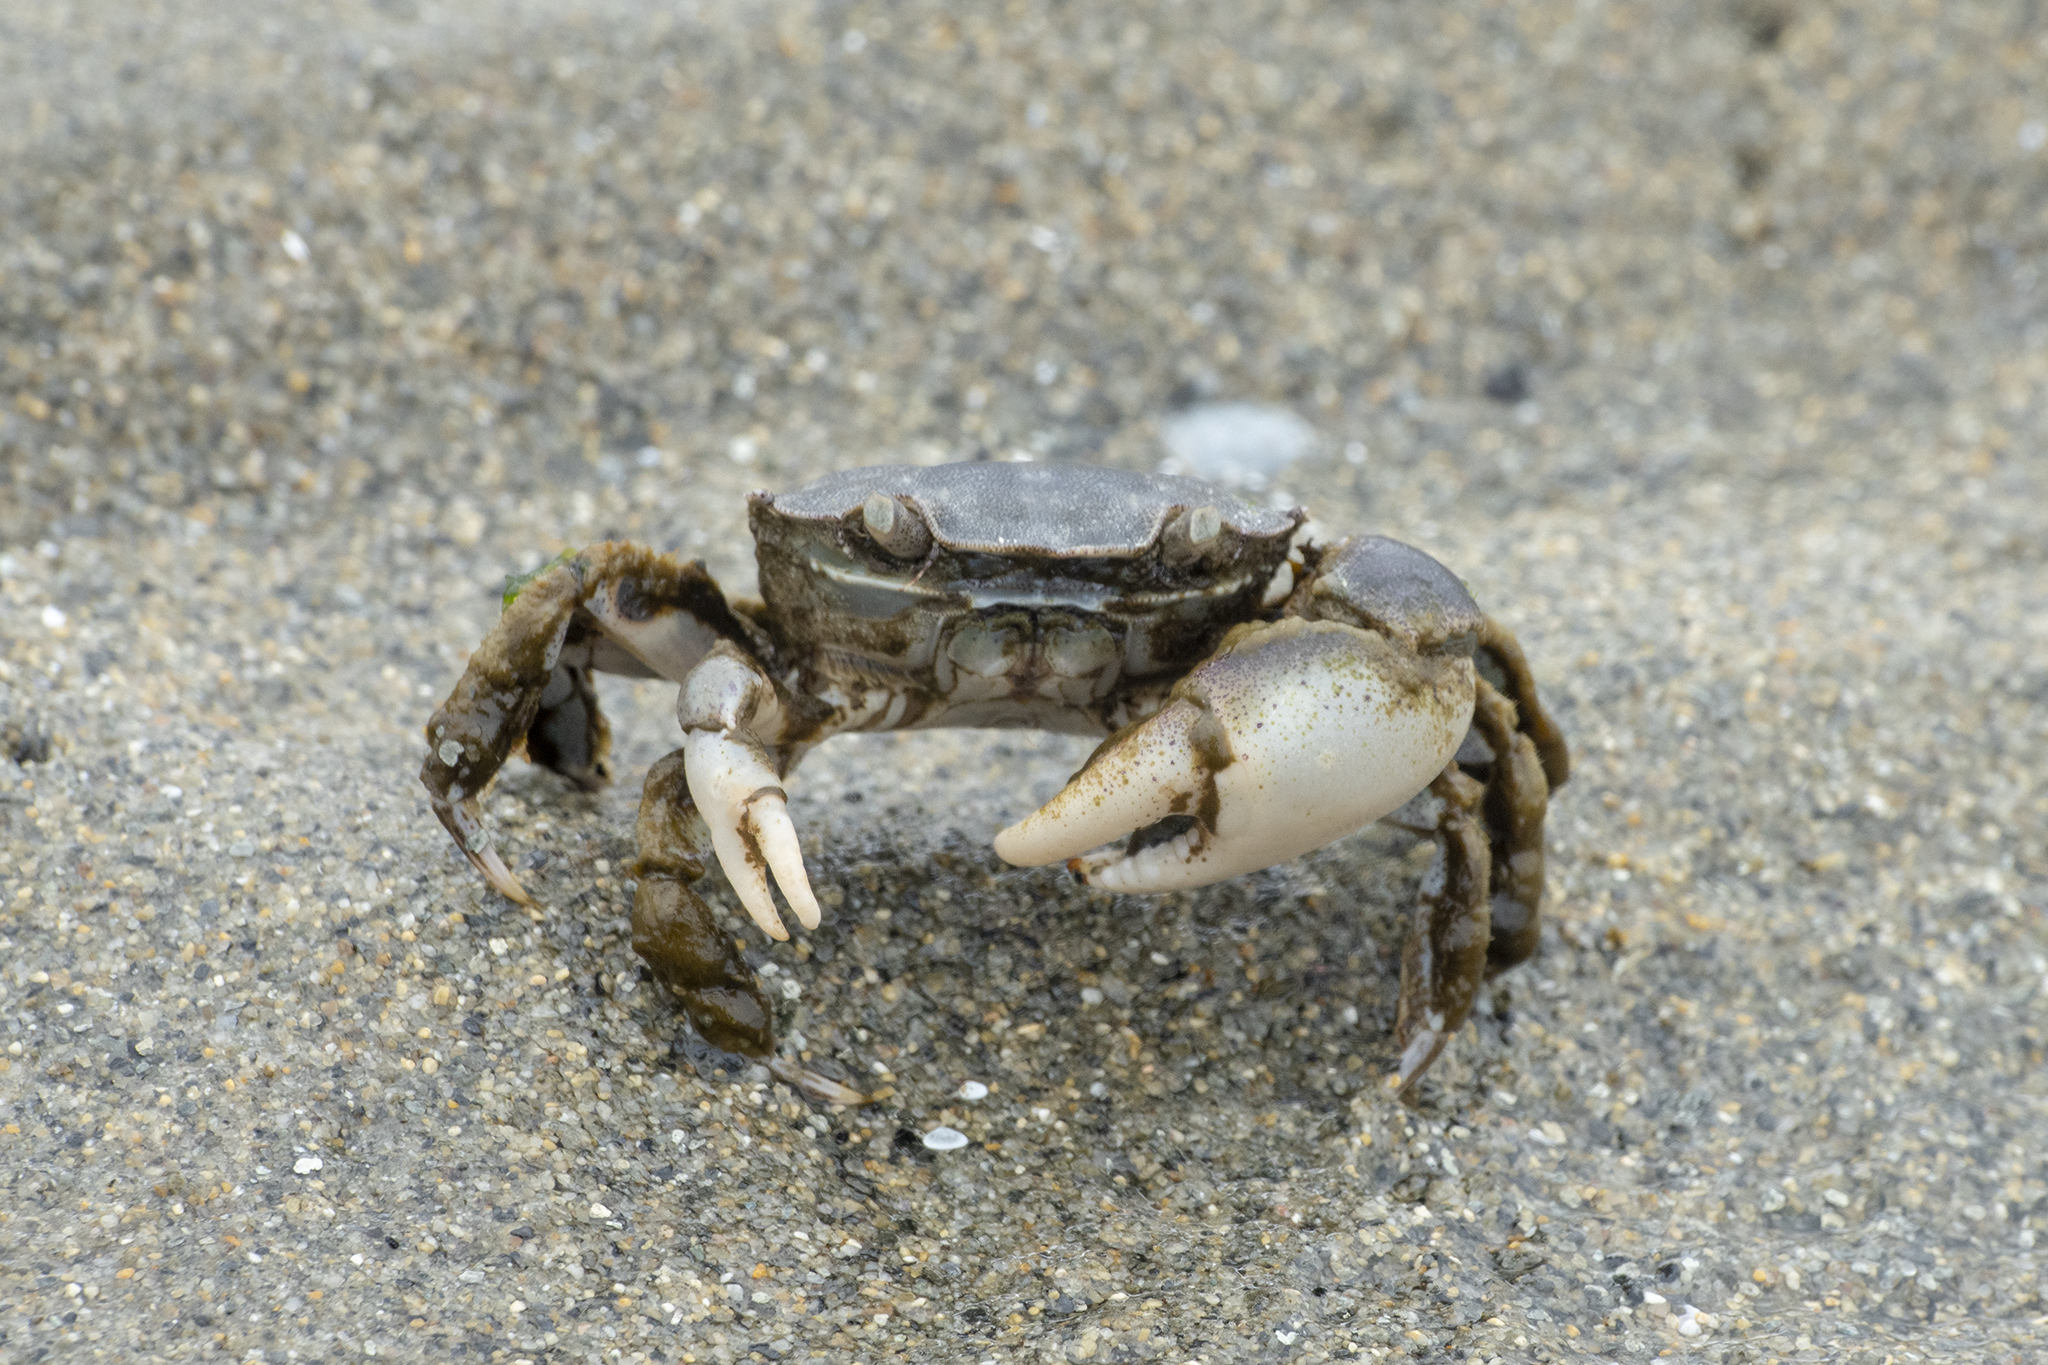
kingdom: Animalia
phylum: Arthropoda
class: Malacostraca
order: Decapoda
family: Varunidae
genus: Hemigrapsus
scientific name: Hemigrapsus crenulatus
